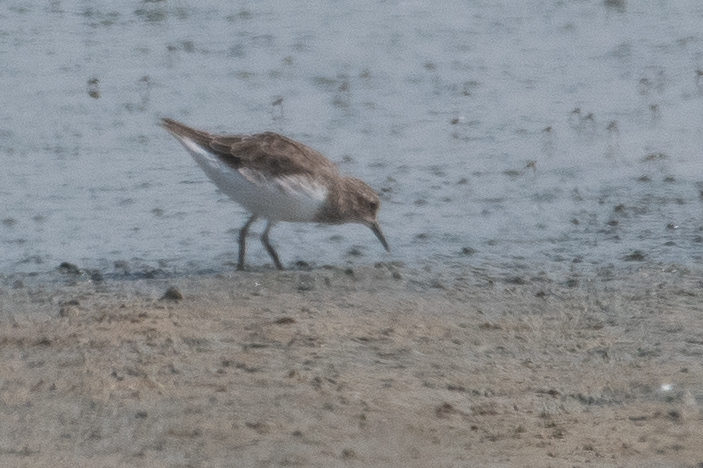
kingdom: Animalia
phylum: Chordata
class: Aves
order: Charadriiformes
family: Scolopacidae
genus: Calidris
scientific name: Calidris minutilla
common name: Least sandpiper
